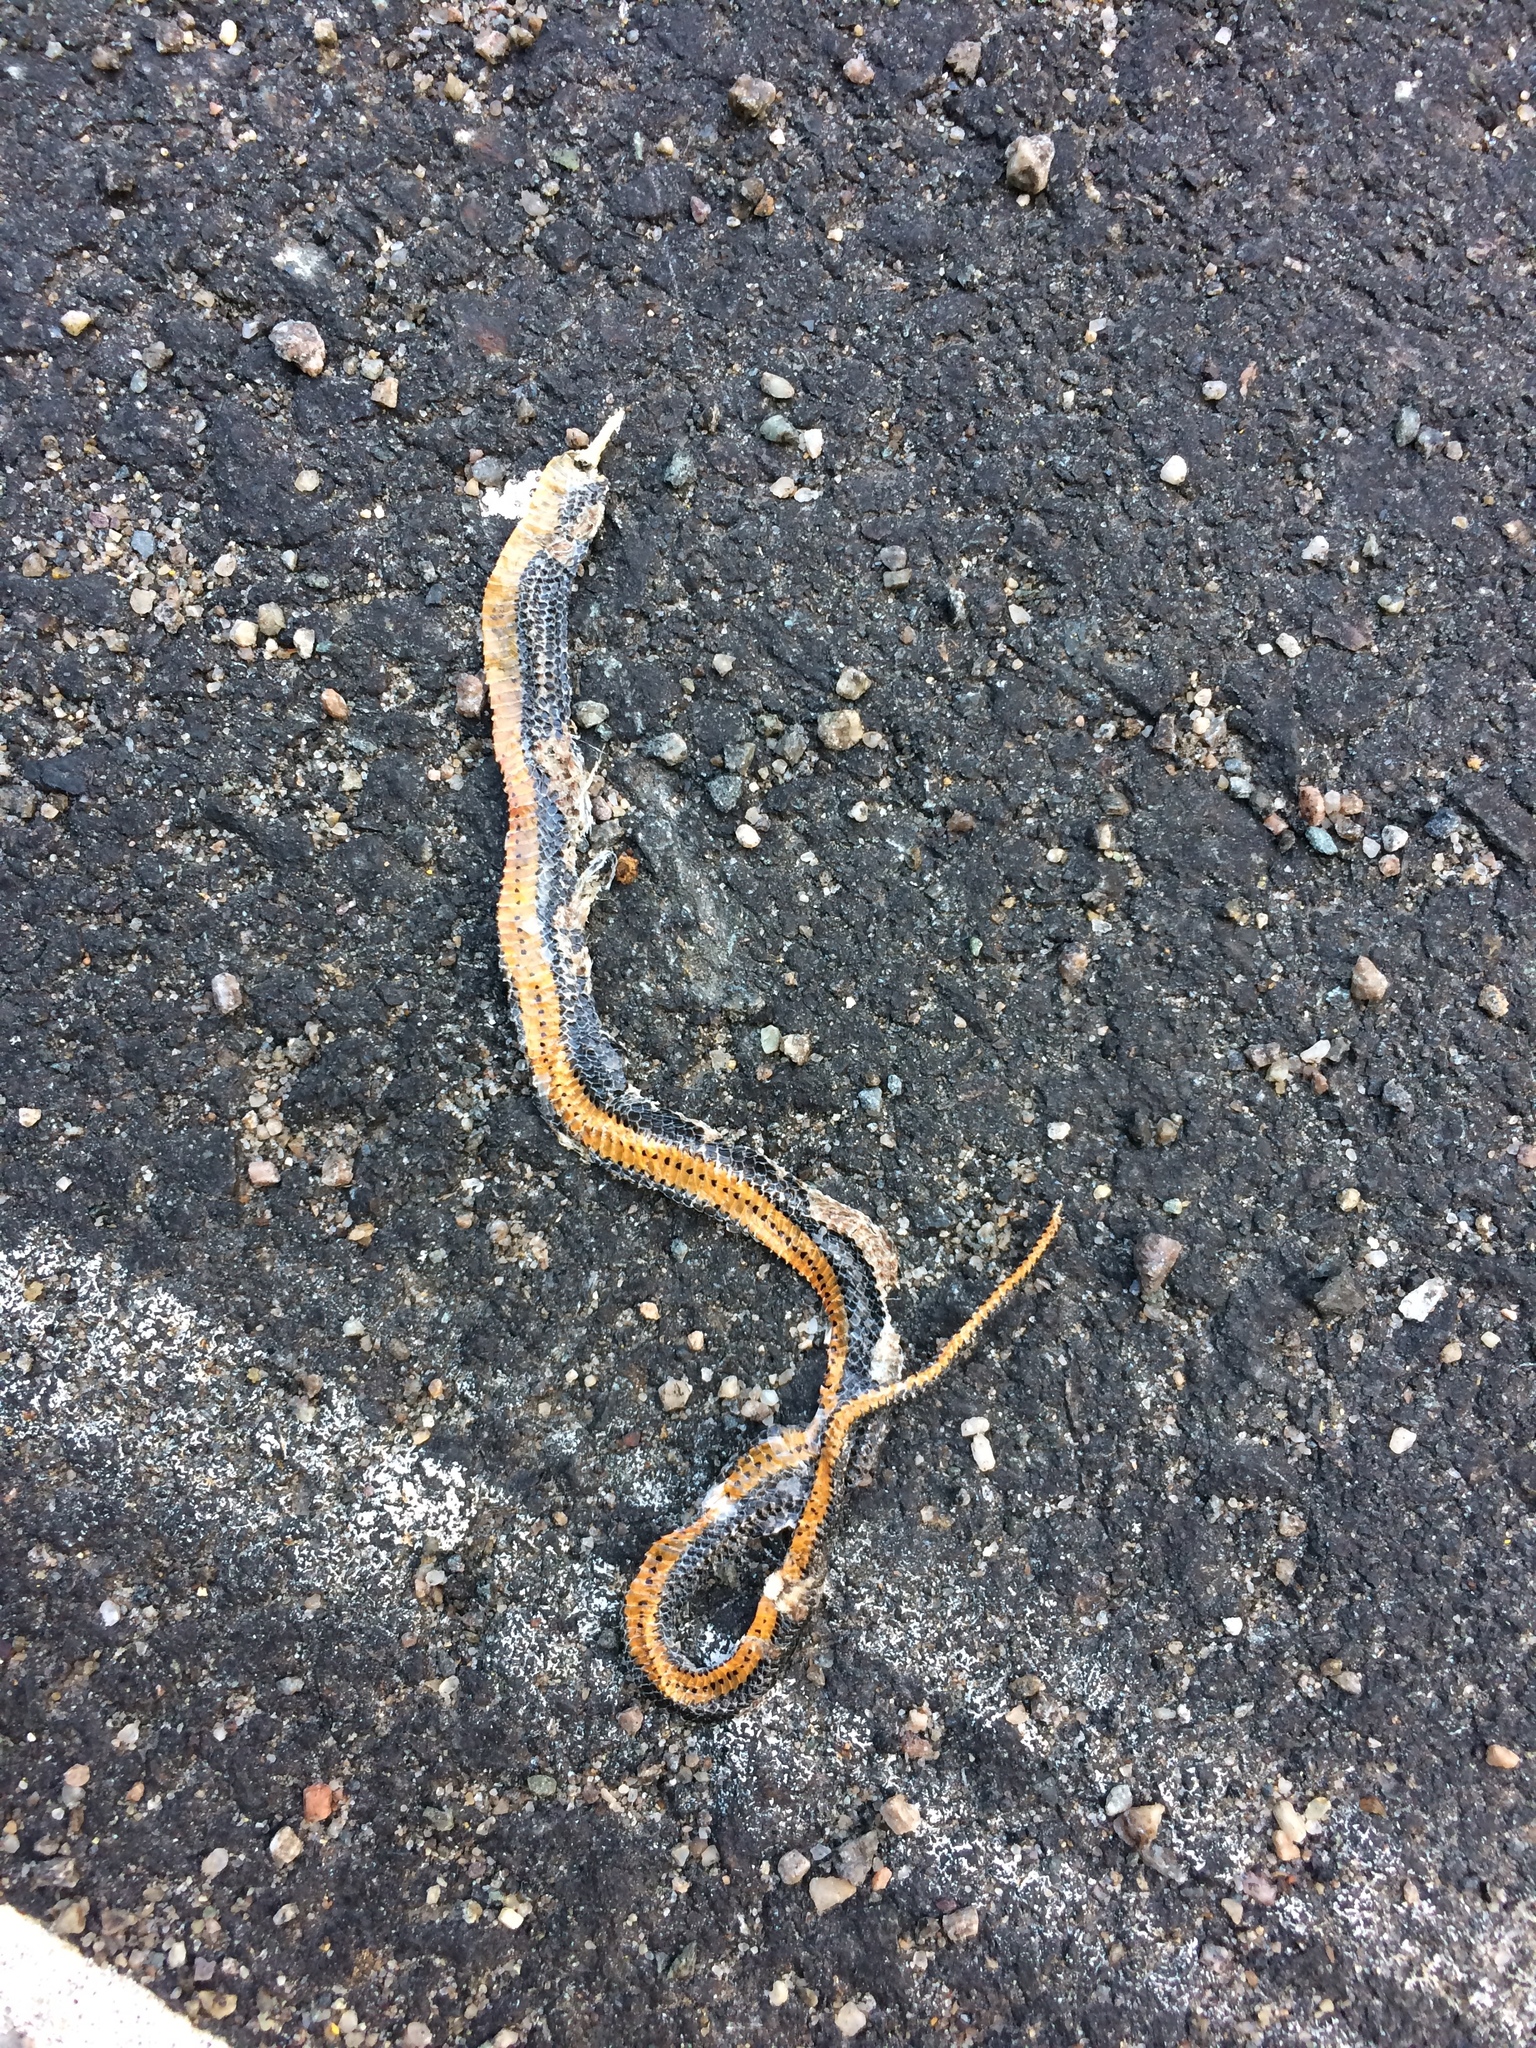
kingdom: Animalia
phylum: Chordata
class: Squamata
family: Colubridae
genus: Diadophis
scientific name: Diadophis punctatus
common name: Ringneck snake
